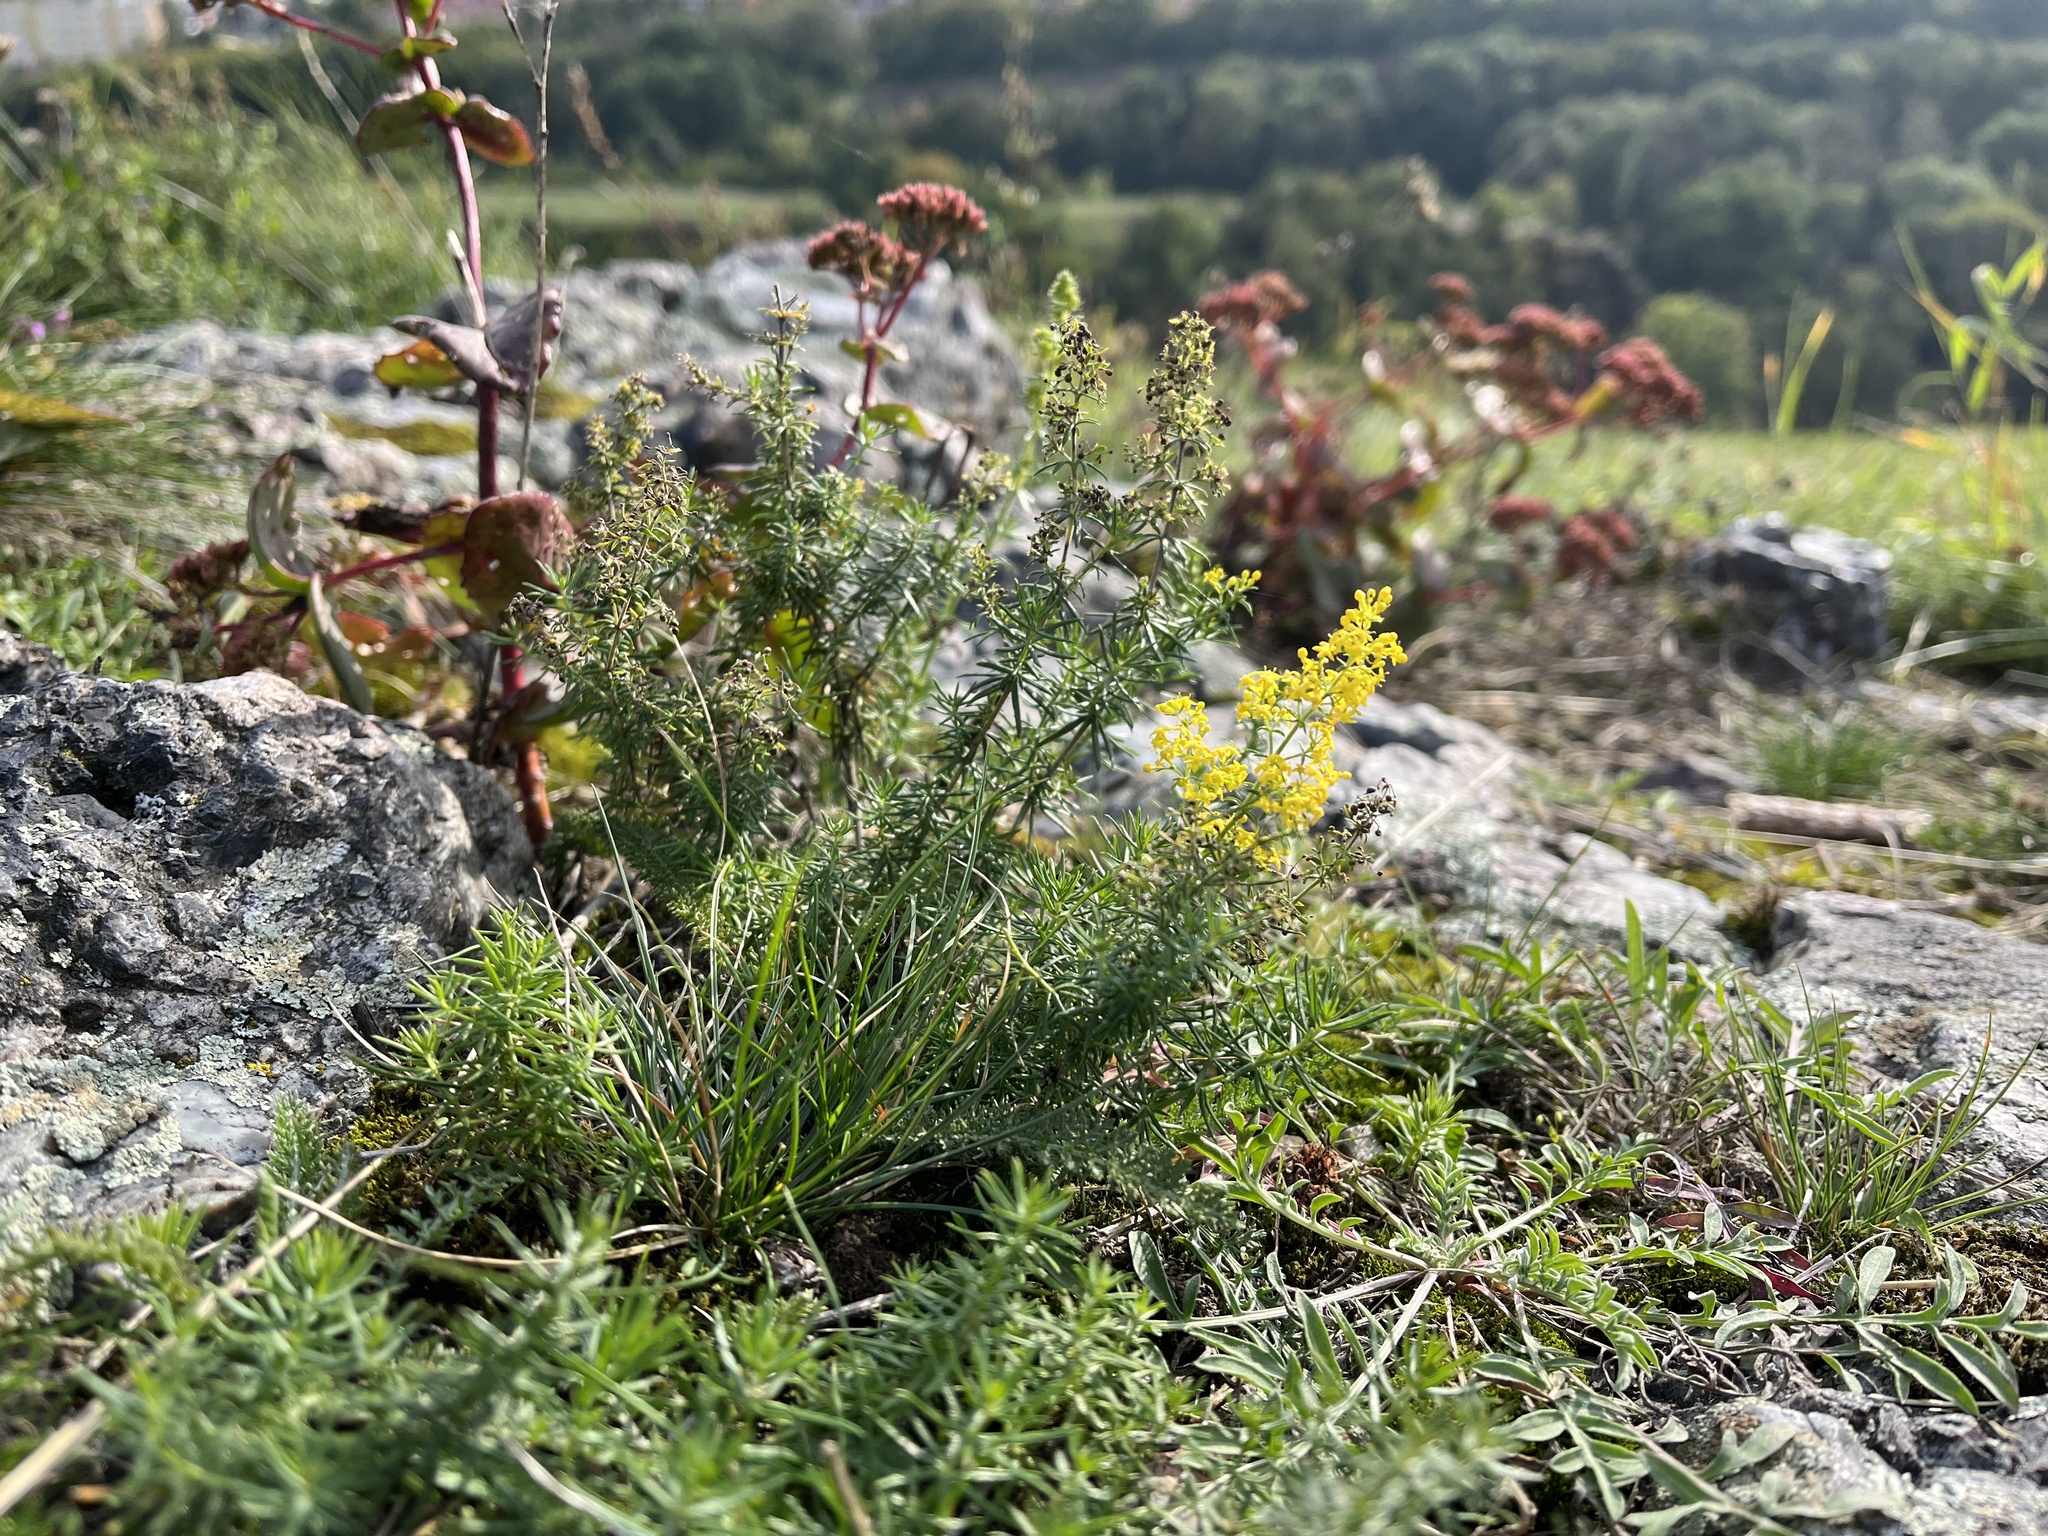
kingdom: Plantae
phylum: Tracheophyta
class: Magnoliopsida
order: Gentianales
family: Rubiaceae
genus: Galium
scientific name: Galium verum
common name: Lady's bedstraw
